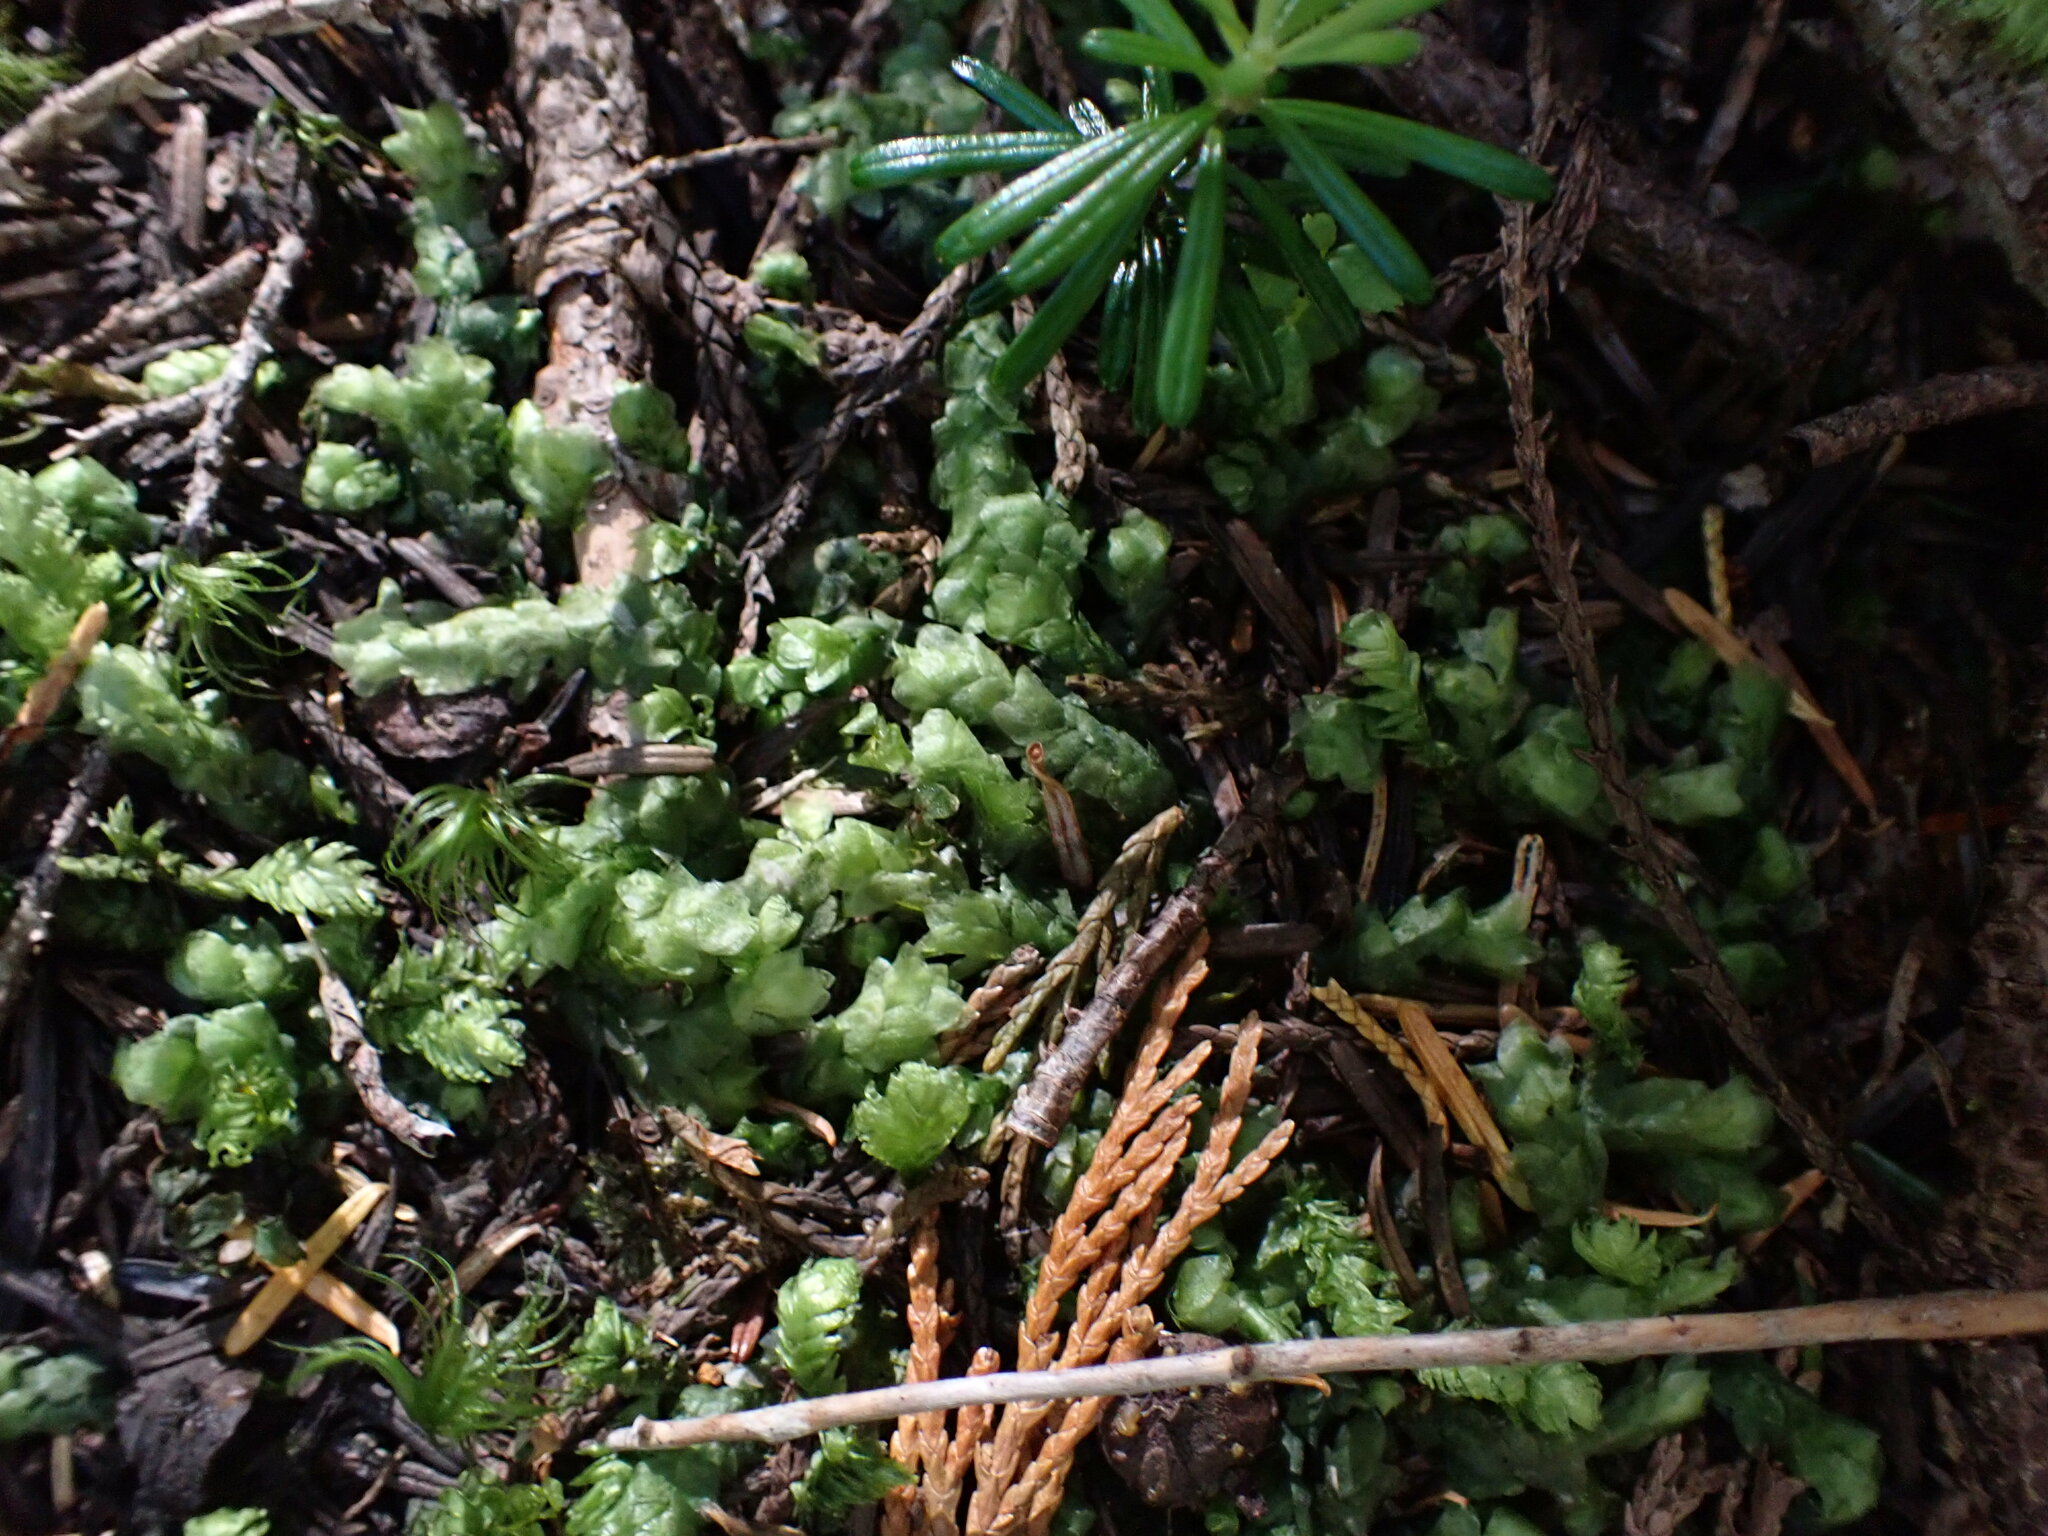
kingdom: Plantae
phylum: Bryophyta
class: Bryopsida
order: Hypnales
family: Plagiotheciaceae
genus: Plagiothecium
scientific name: Plagiothecium undulatum
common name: Waved silk-moss
